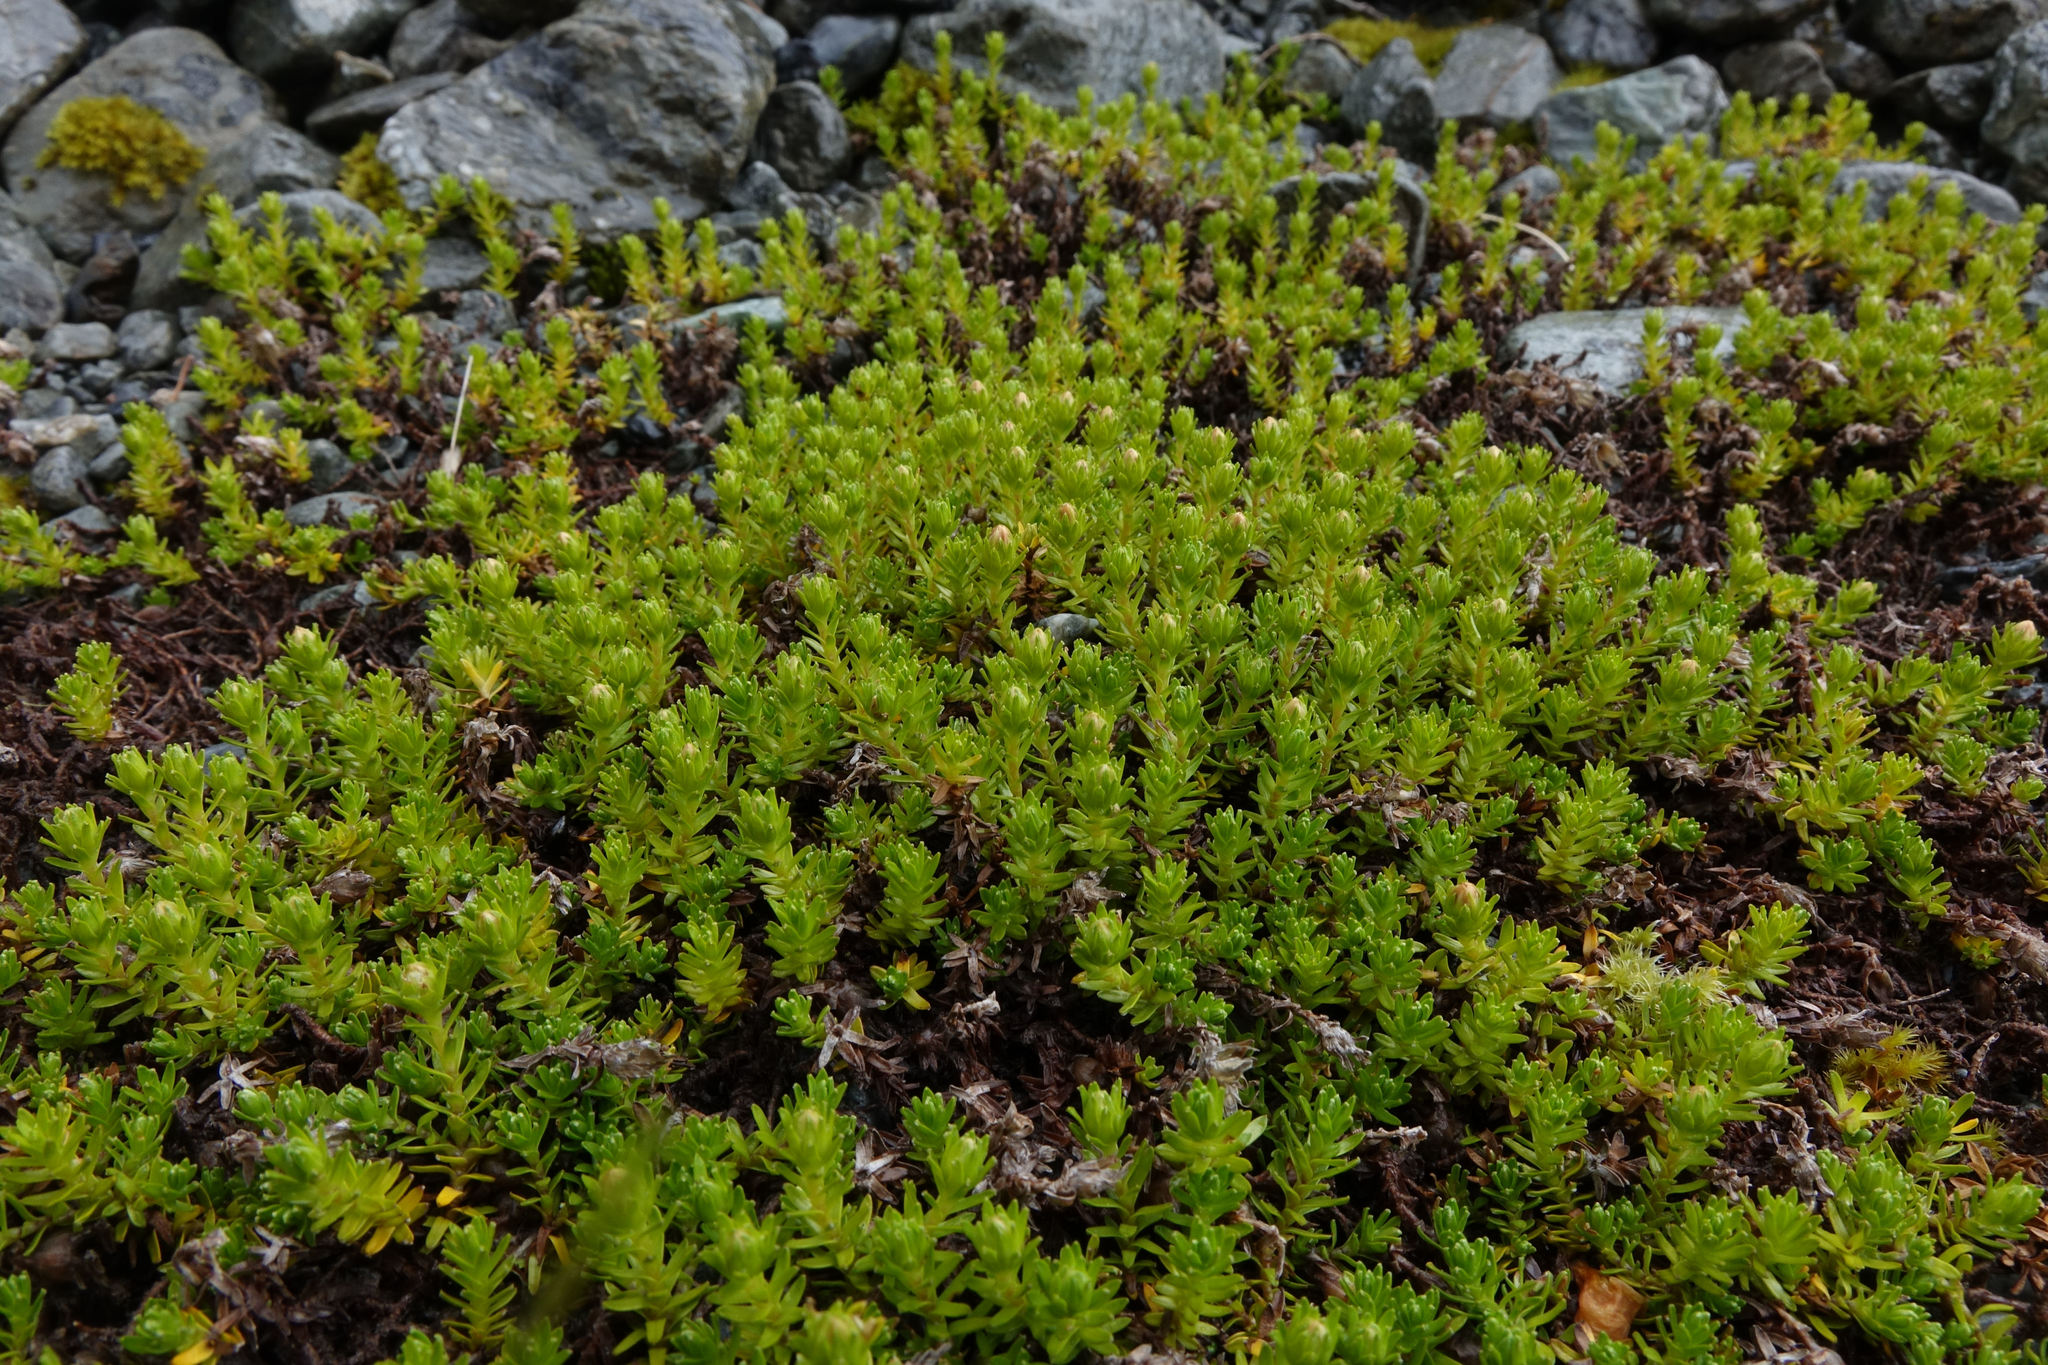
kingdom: Plantae
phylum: Tracheophyta
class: Magnoliopsida
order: Asterales
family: Asteraceae
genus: Raoulia
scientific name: Raoulia glabra
